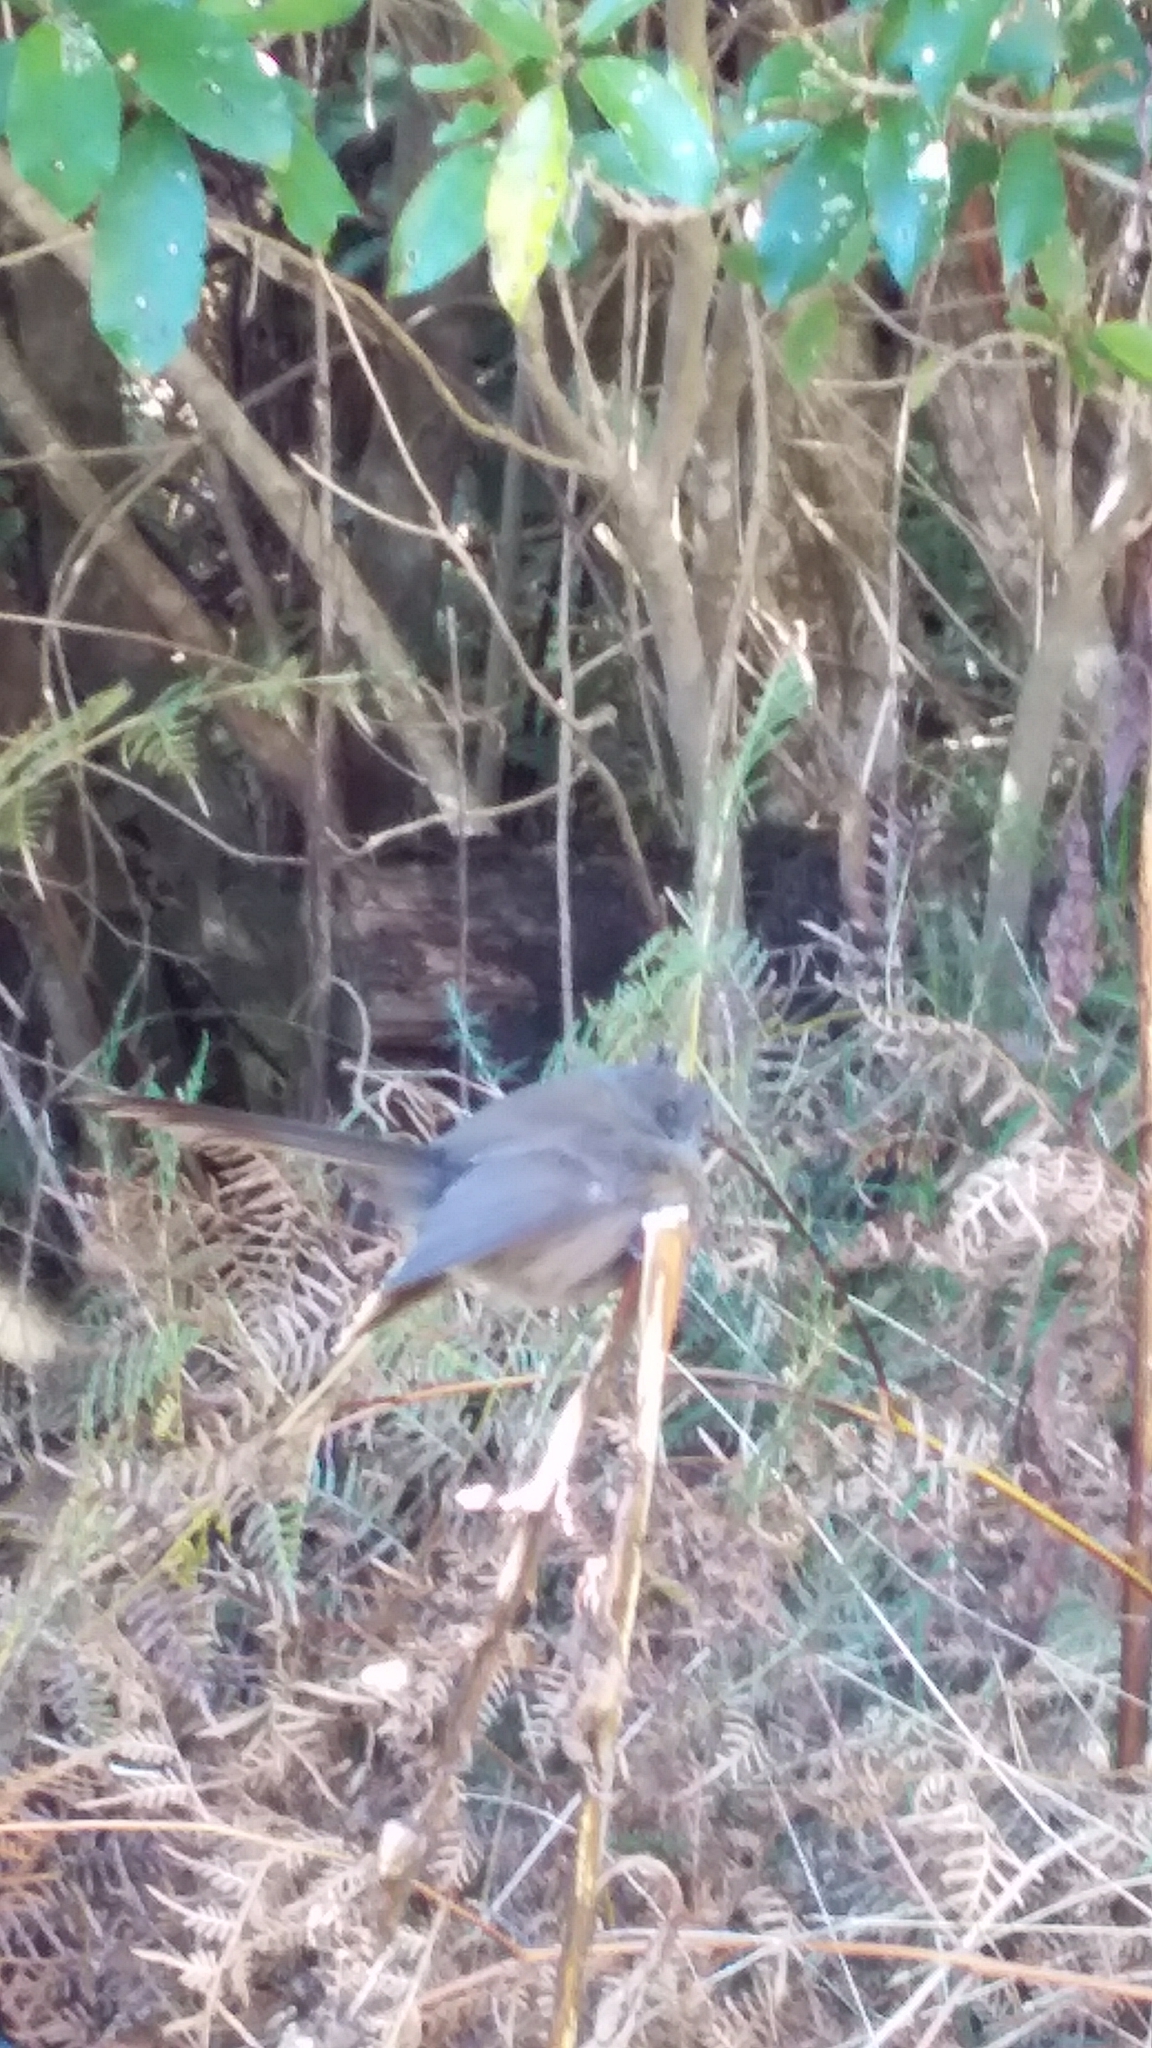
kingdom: Animalia
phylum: Chordata
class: Aves
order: Passeriformes
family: Rhipiduridae
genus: Rhipidura
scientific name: Rhipidura fuliginosa
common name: New zealand fantail
